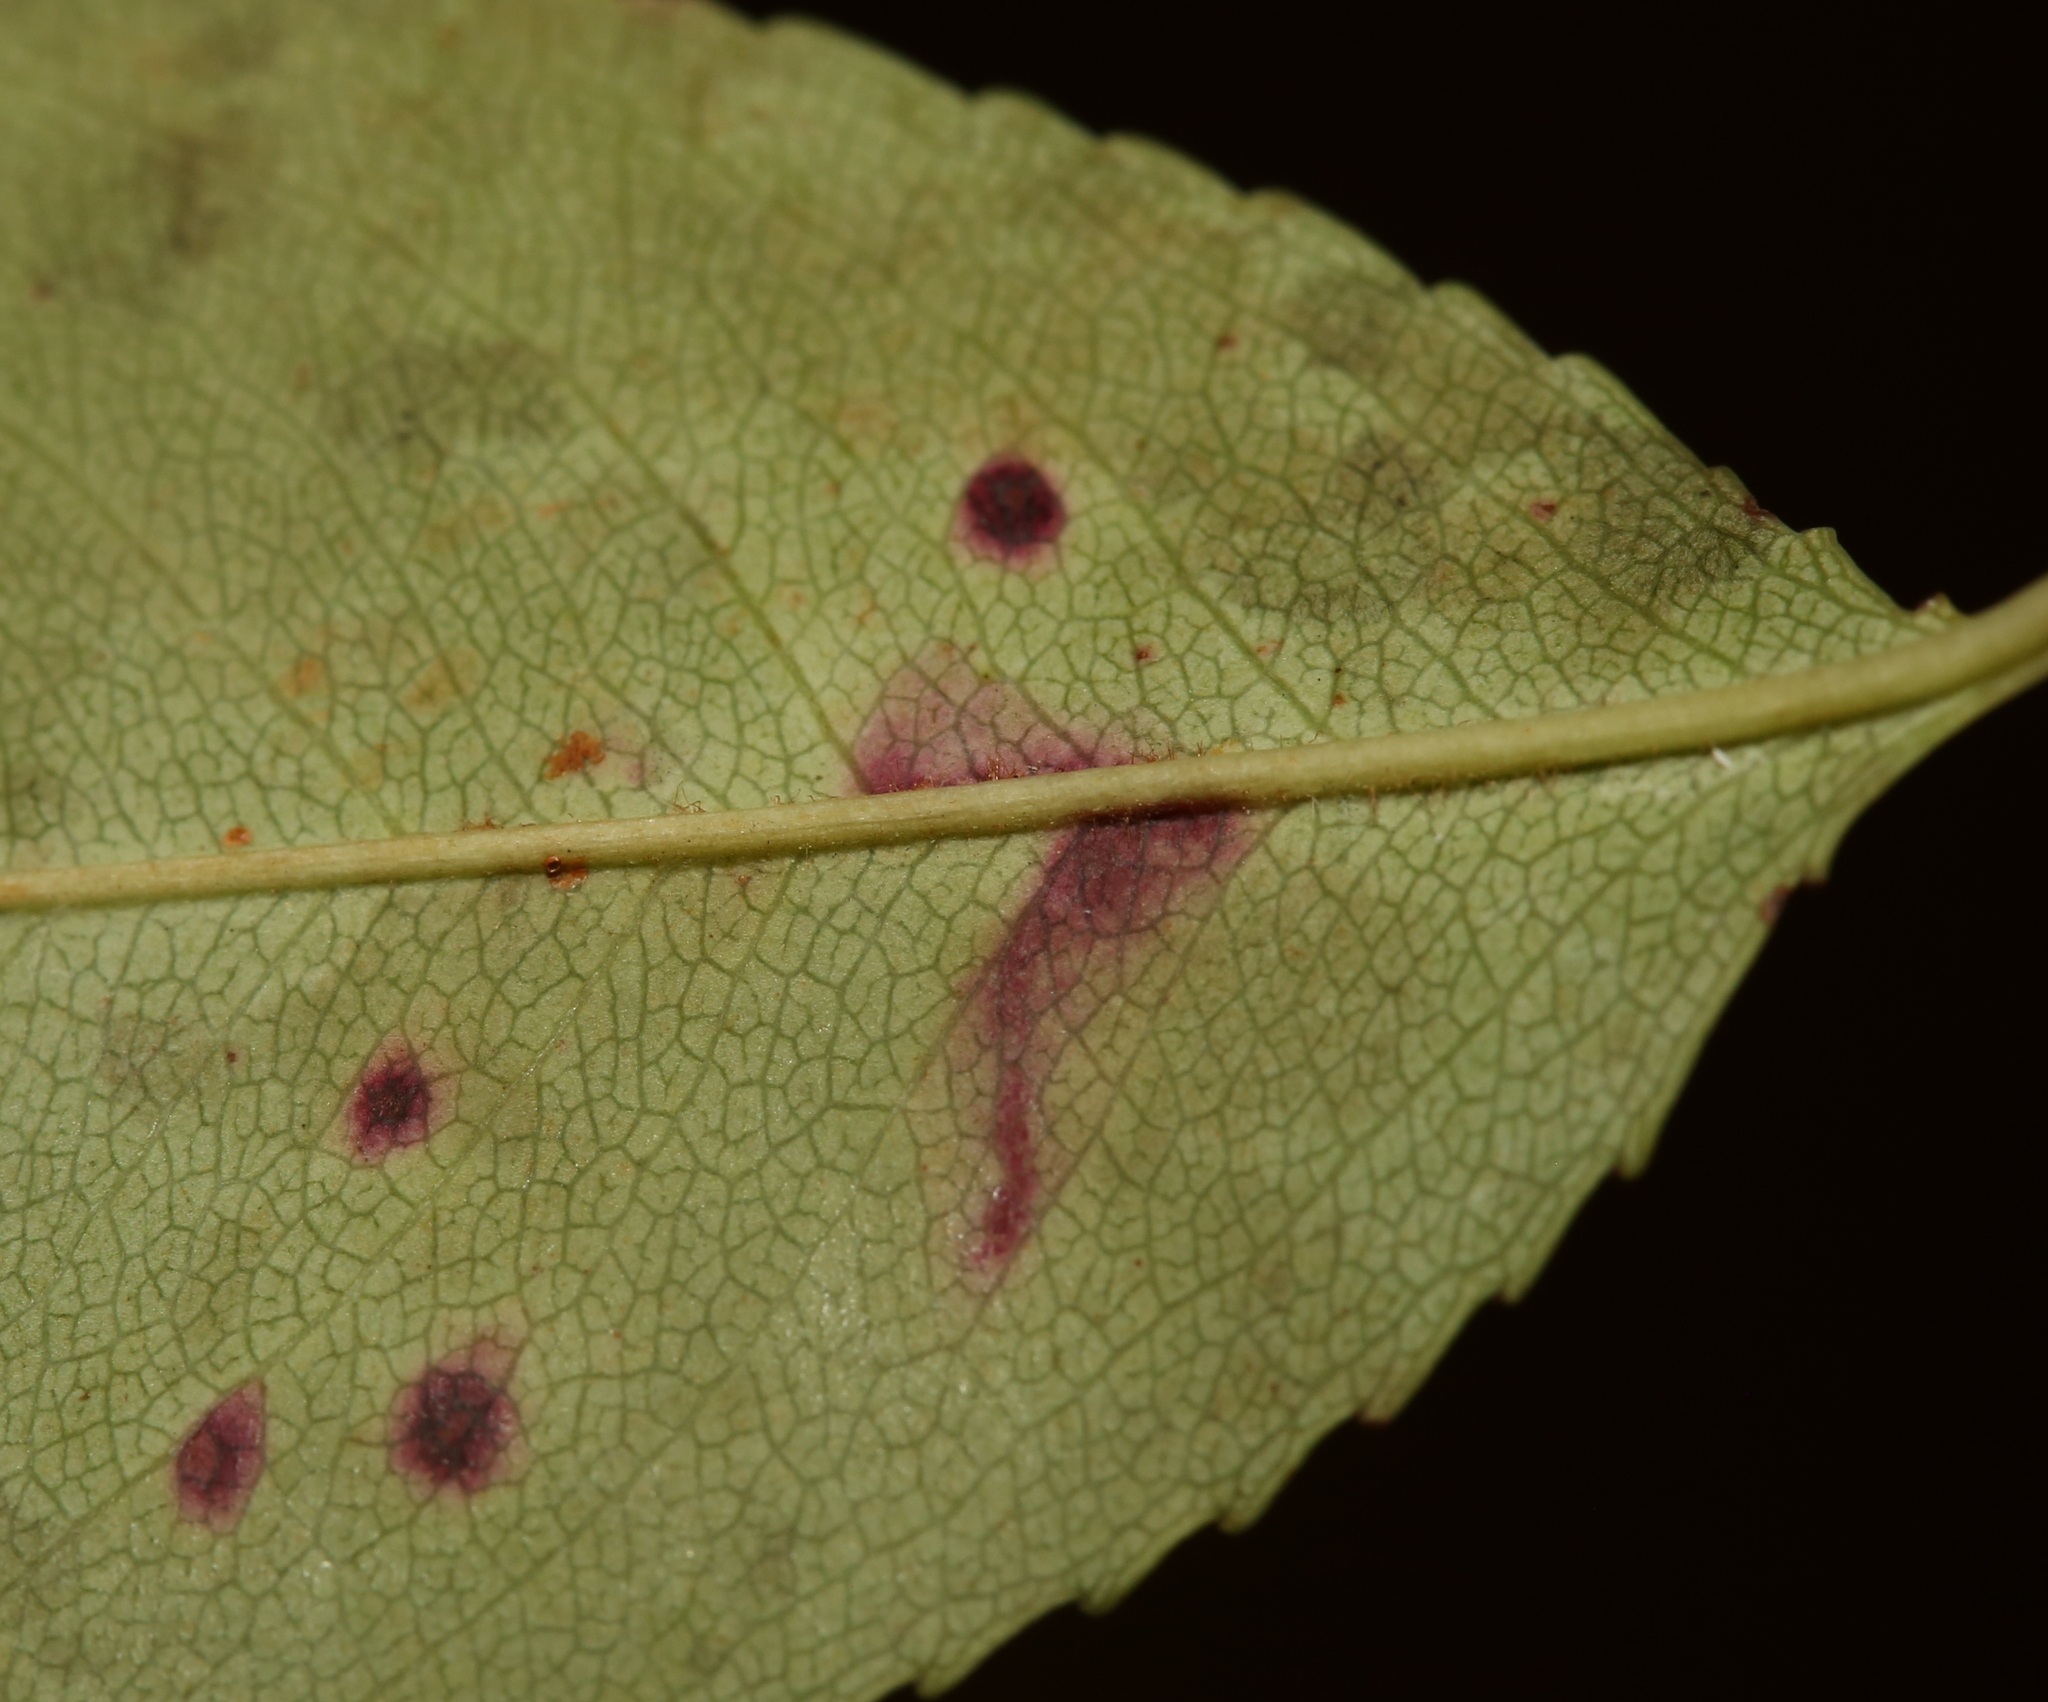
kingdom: Animalia
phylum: Arthropoda
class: Insecta
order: Lepidoptera
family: Bucculatricidae
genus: Bucculatrix
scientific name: Bucculatrix pomifoliella
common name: Apple skeletonizer moth
